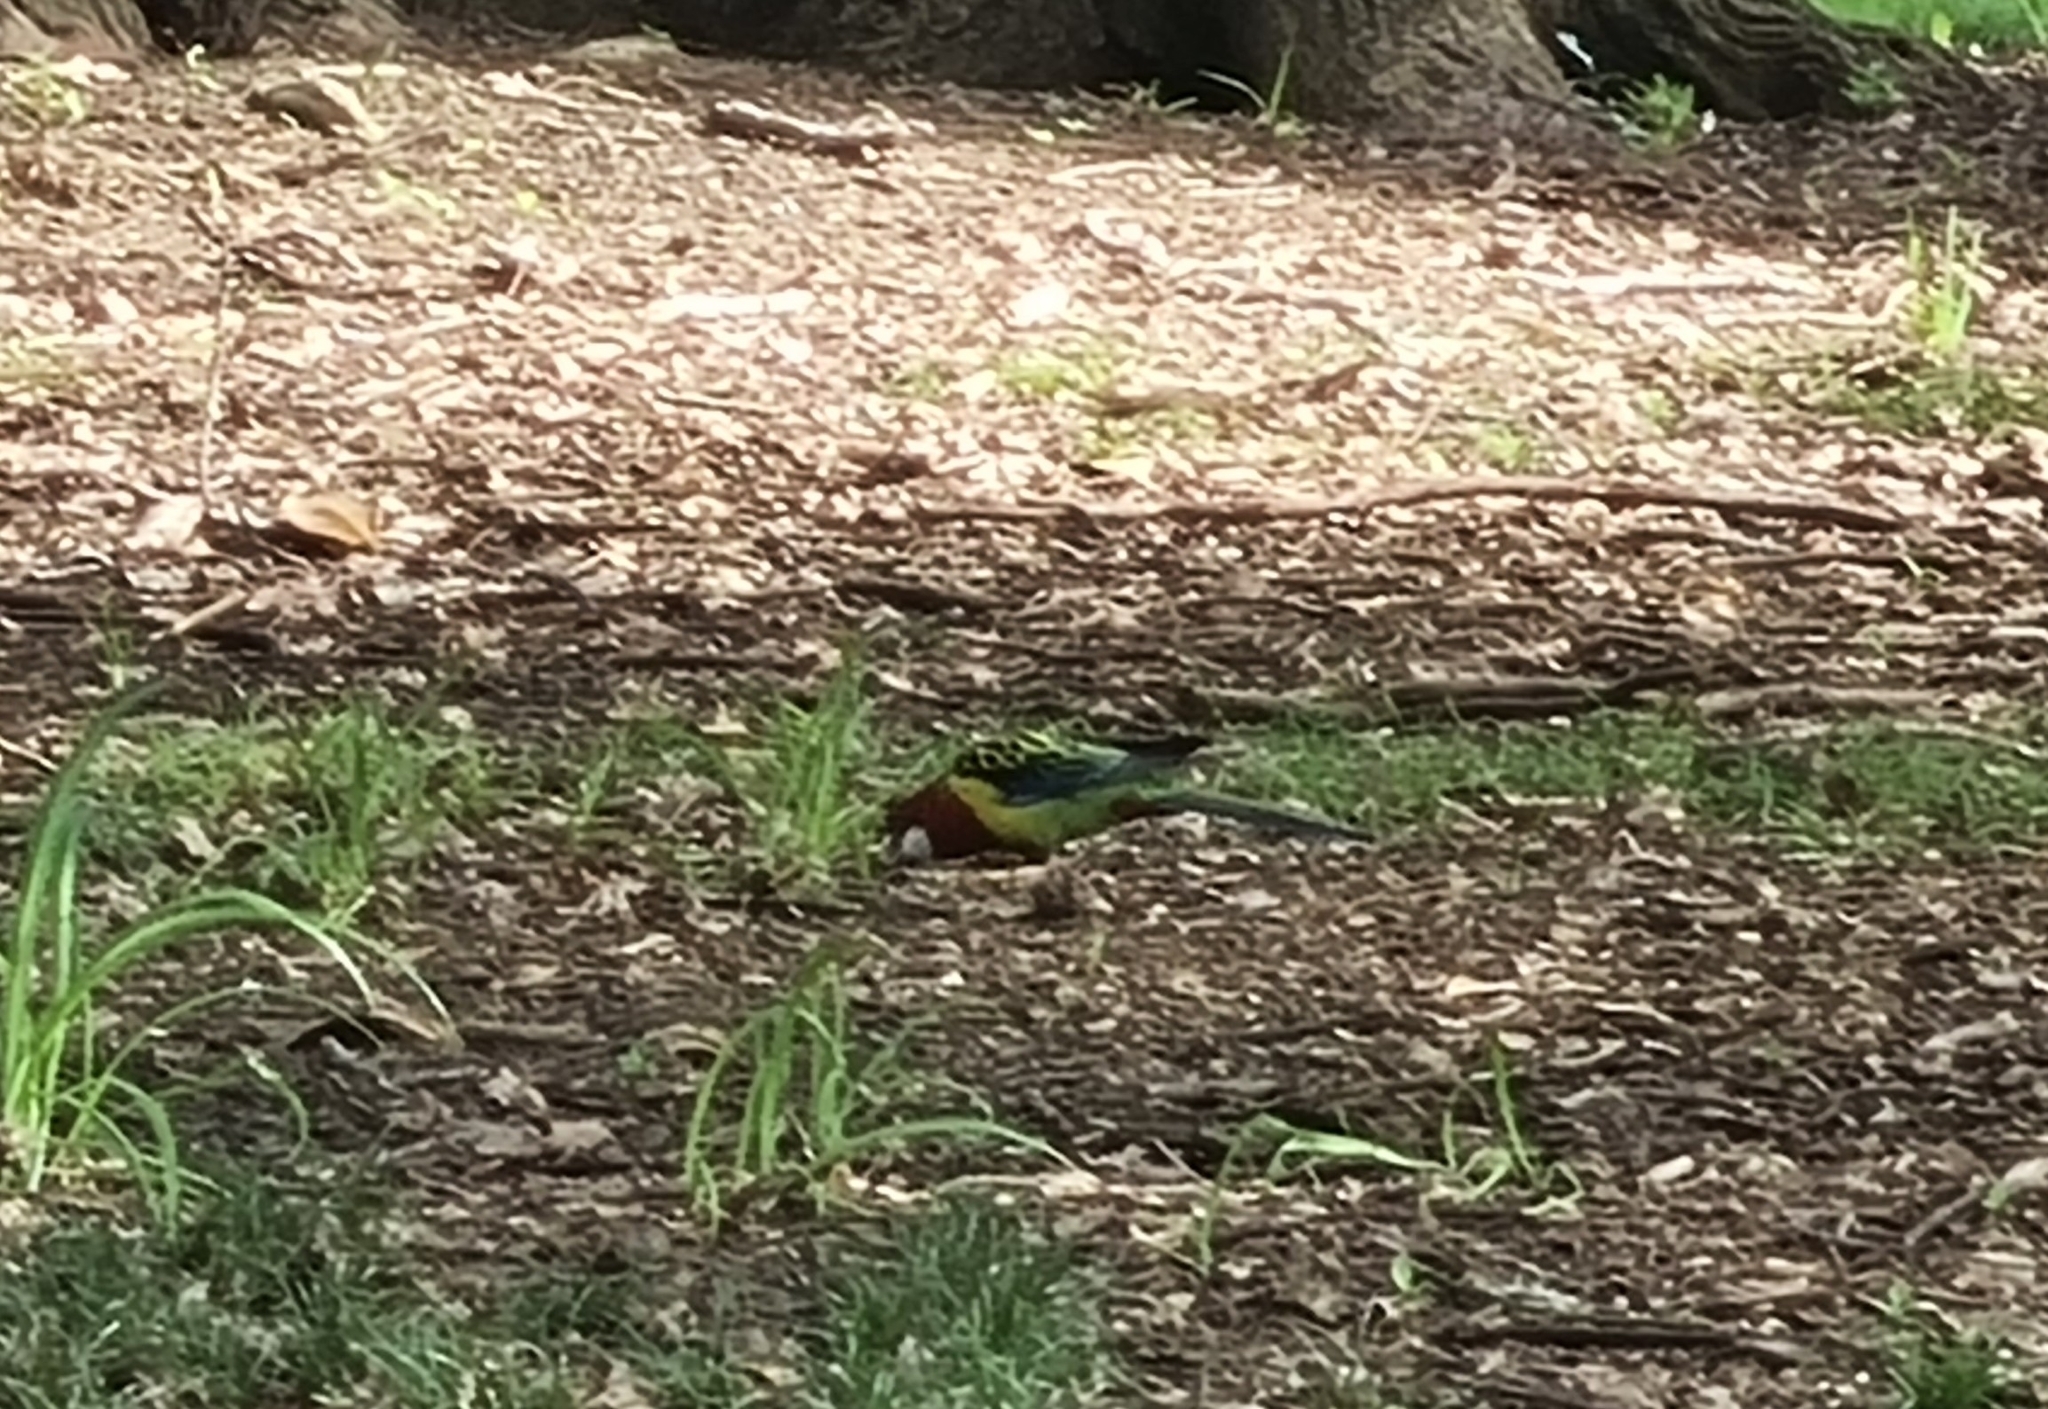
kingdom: Animalia
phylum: Chordata
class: Aves
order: Psittaciformes
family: Psittacidae
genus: Platycercus
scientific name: Platycercus eximius
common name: Eastern rosella
